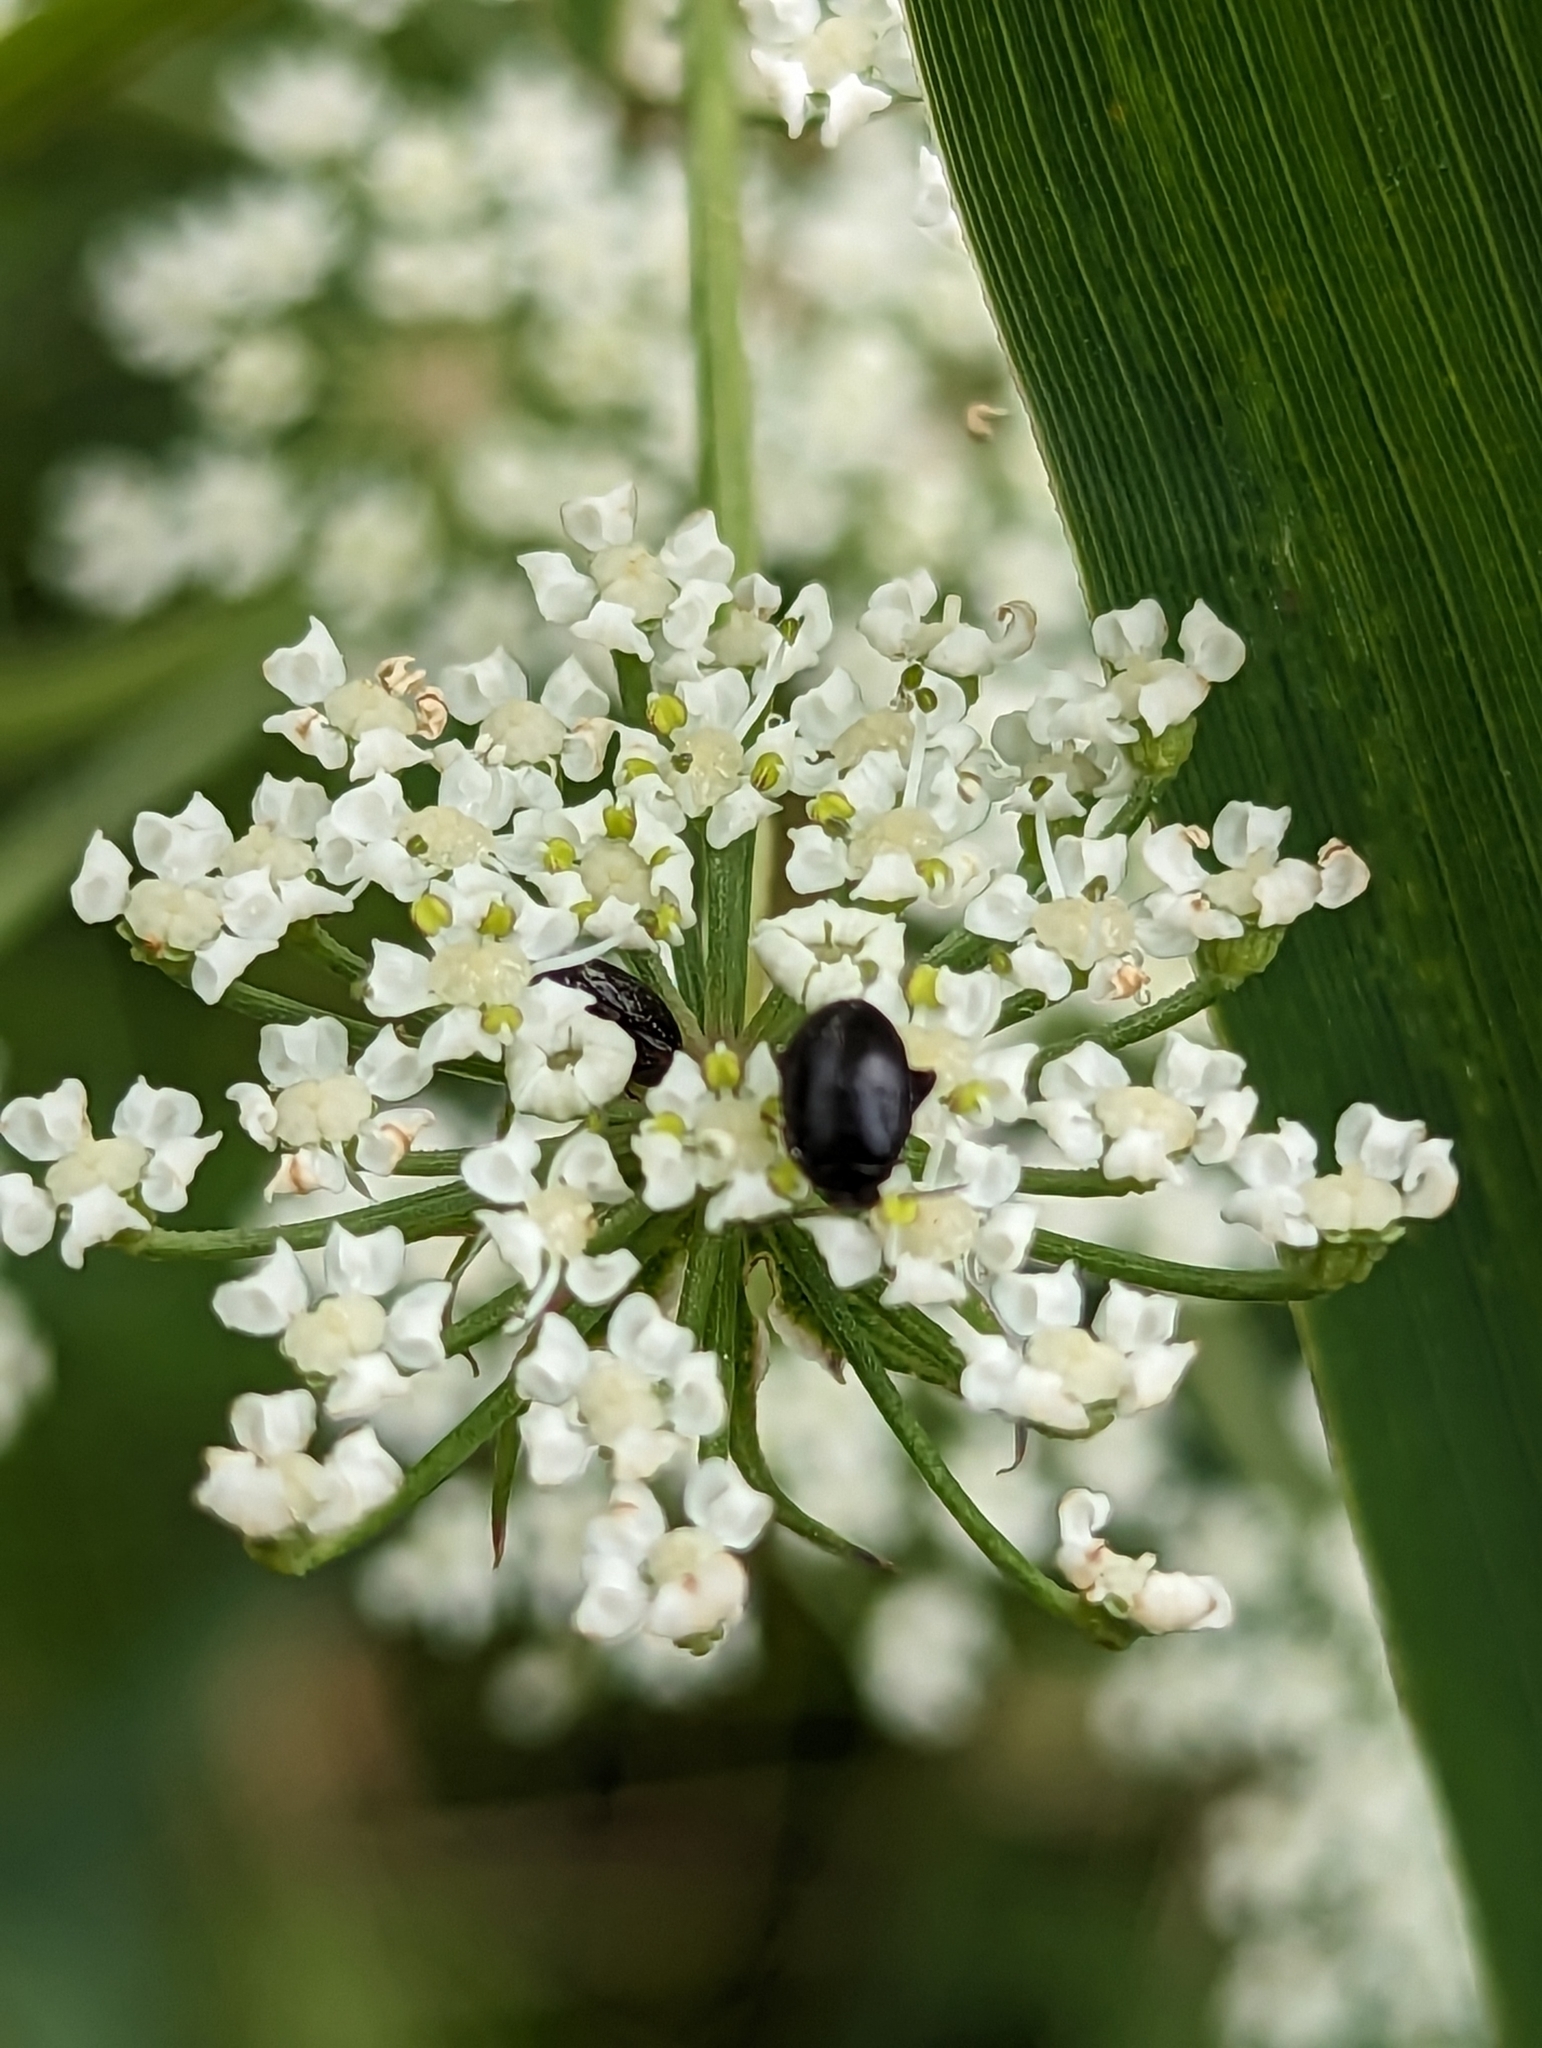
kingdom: Animalia
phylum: Arthropoda
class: Insecta
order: Coleoptera
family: Scirtidae
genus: Scirtes
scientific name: Scirtes hemisphaericus
